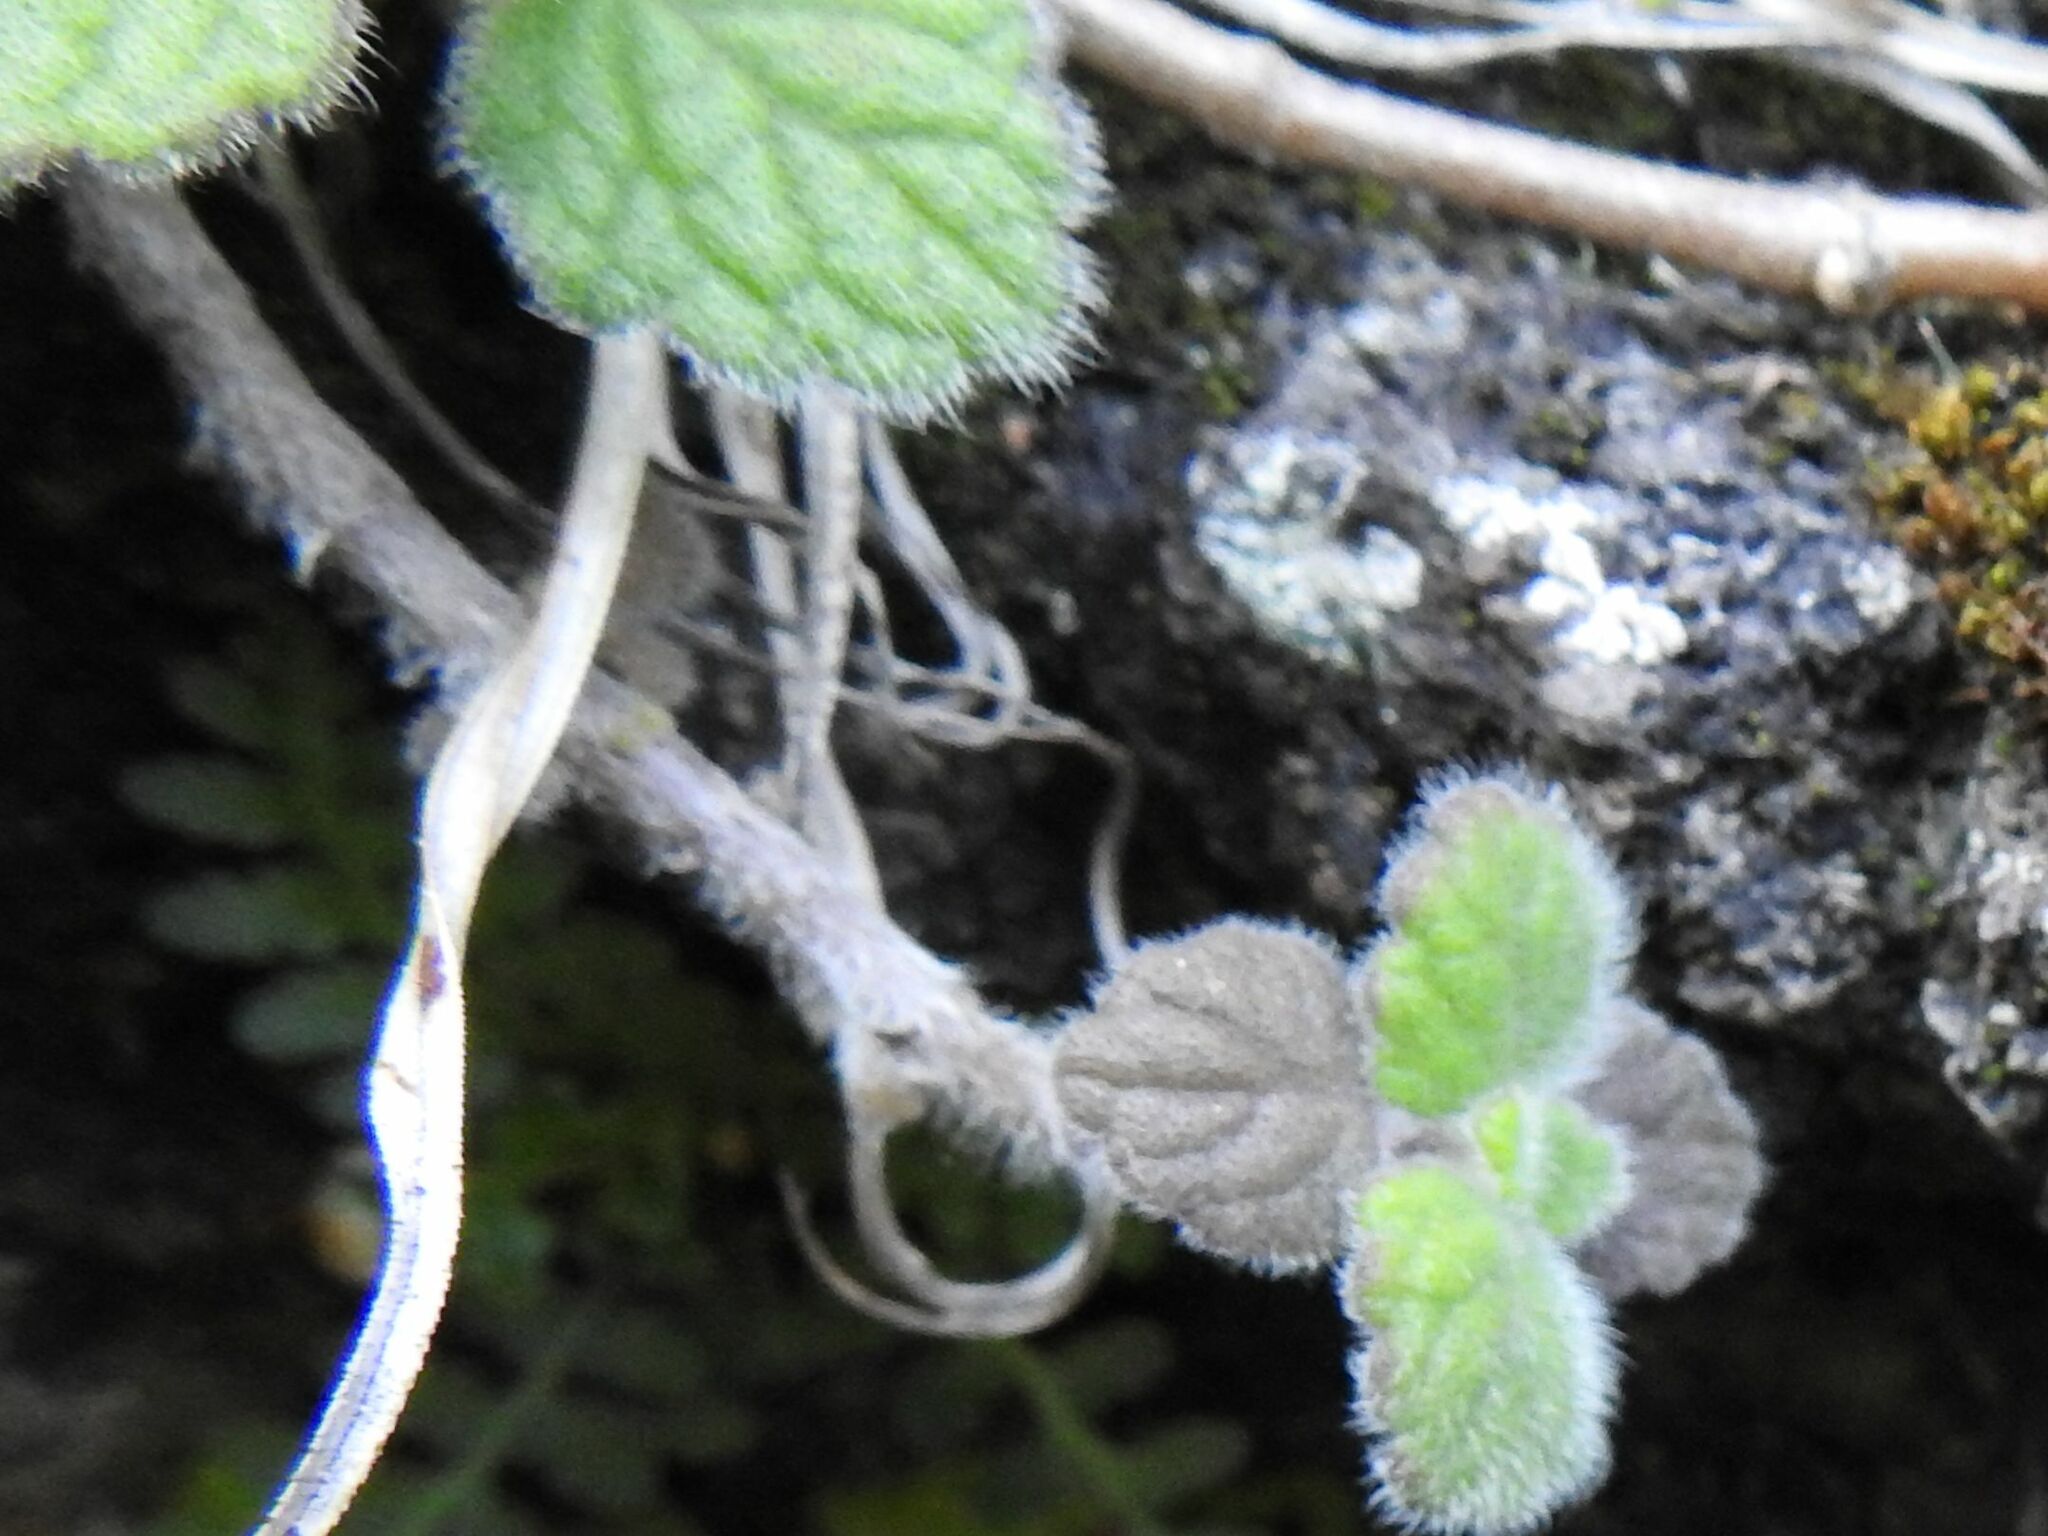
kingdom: Plantae
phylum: Tracheophyta
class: Magnoliopsida
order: Lamiales
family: Lamiaceae
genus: Coleus
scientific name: Coleus hadiensis
